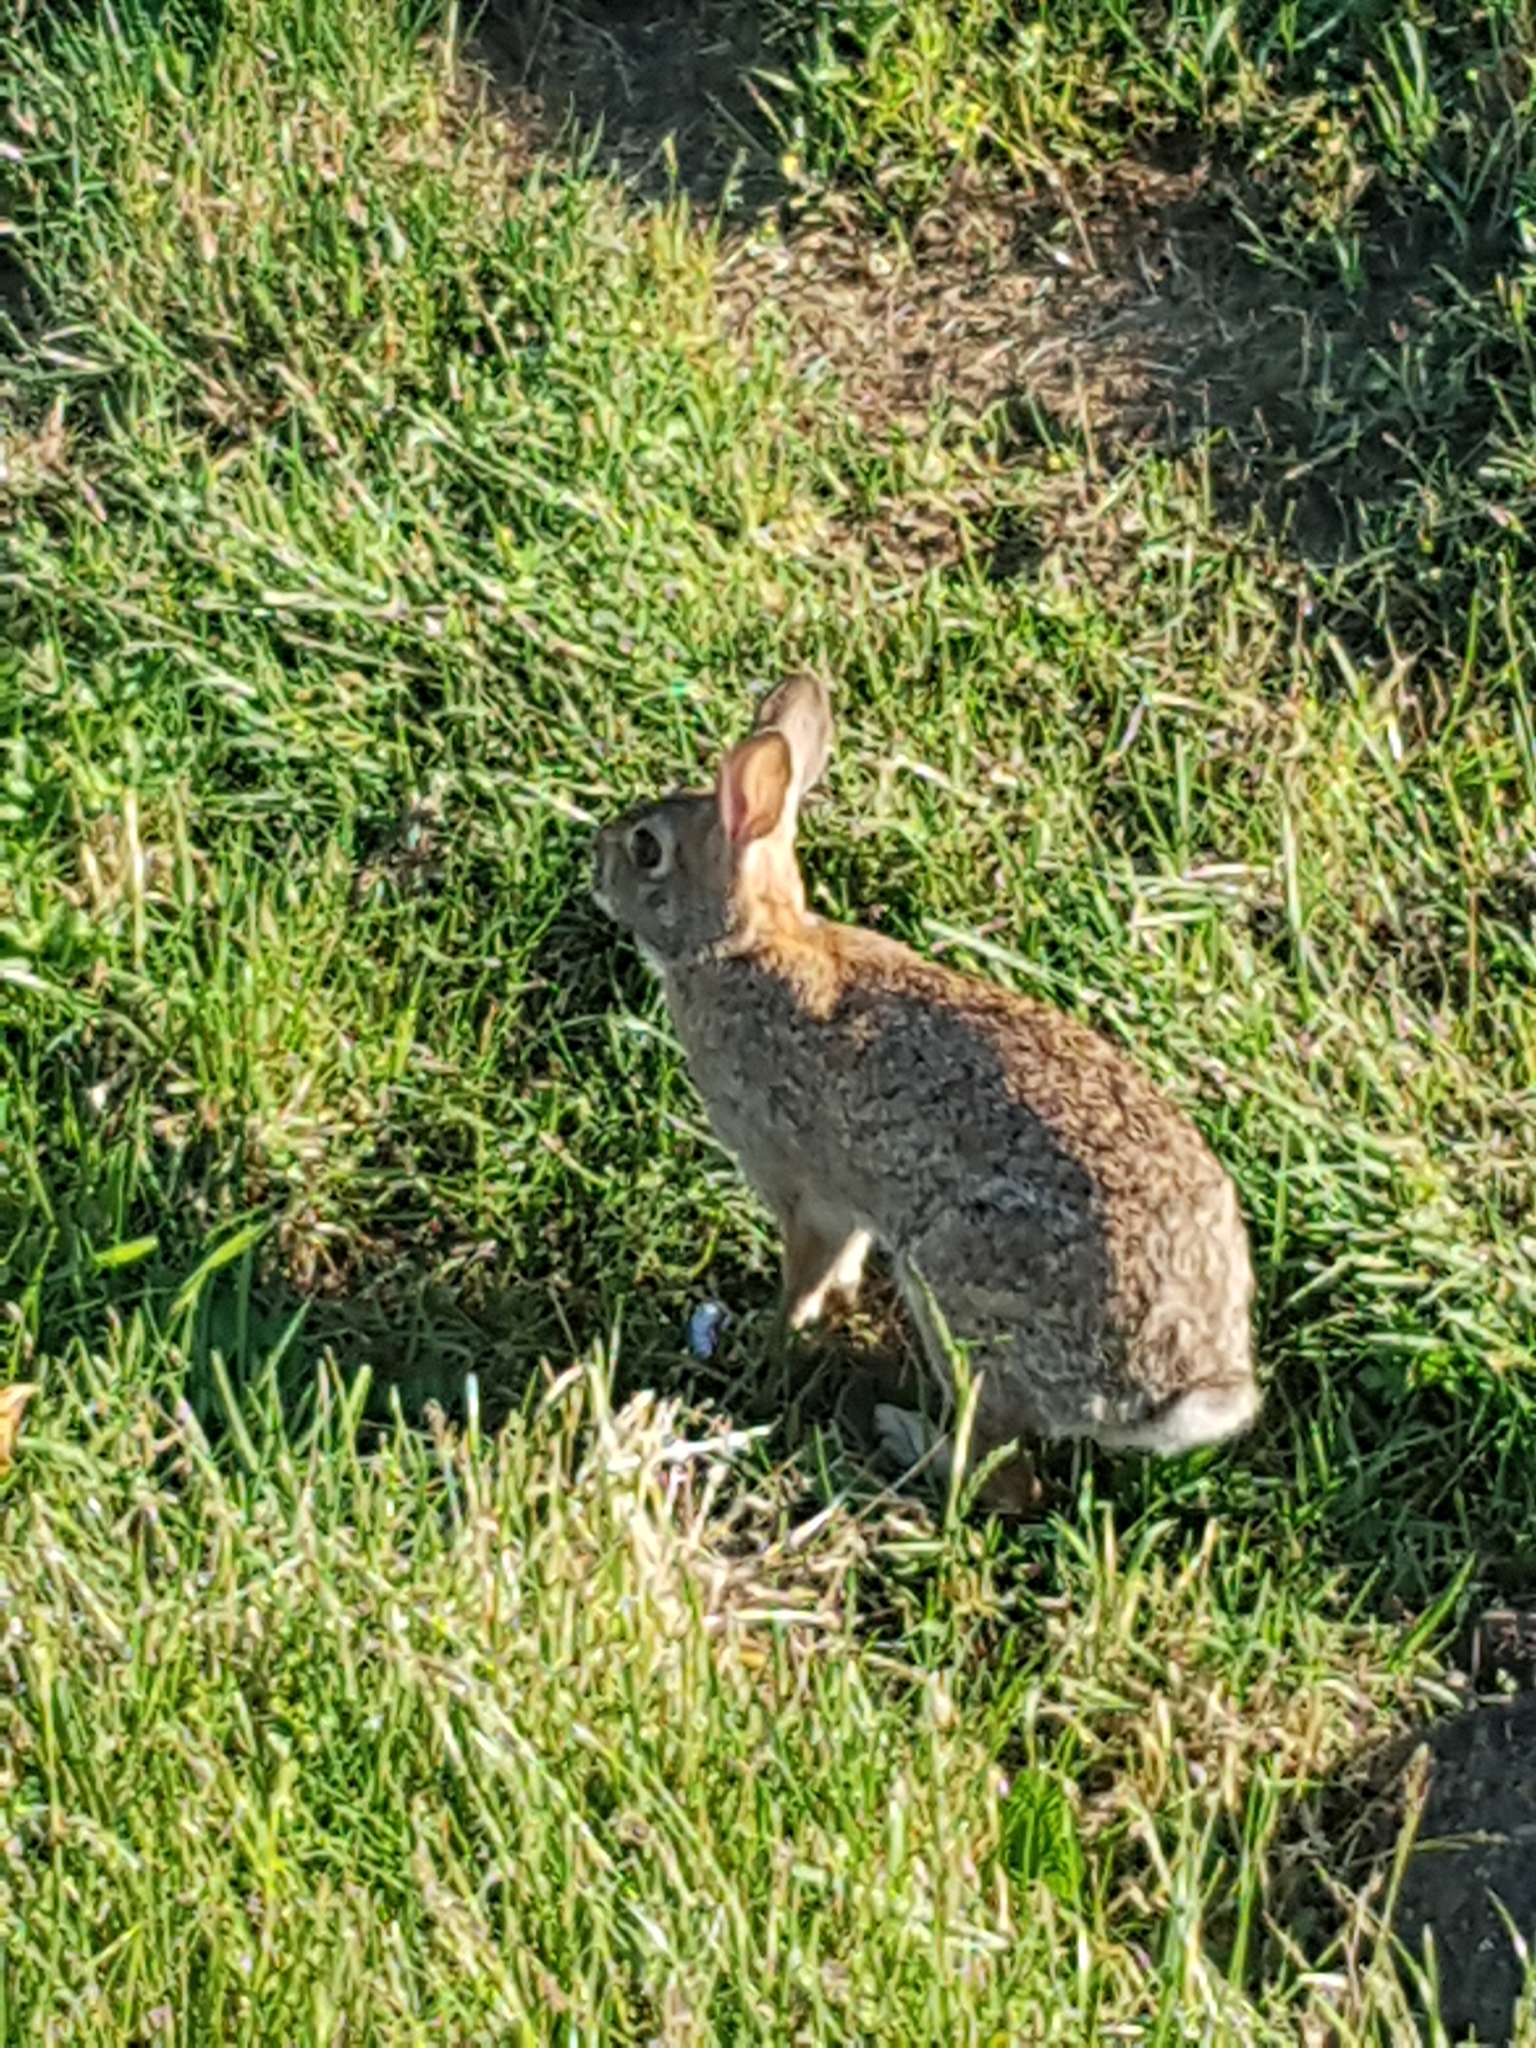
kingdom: Animalia
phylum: Chordata
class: Mammalia
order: Lagomorpha
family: Leporidae
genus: Sylvilagus
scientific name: Sylvilagus floridanus
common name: Eastern cottontail
